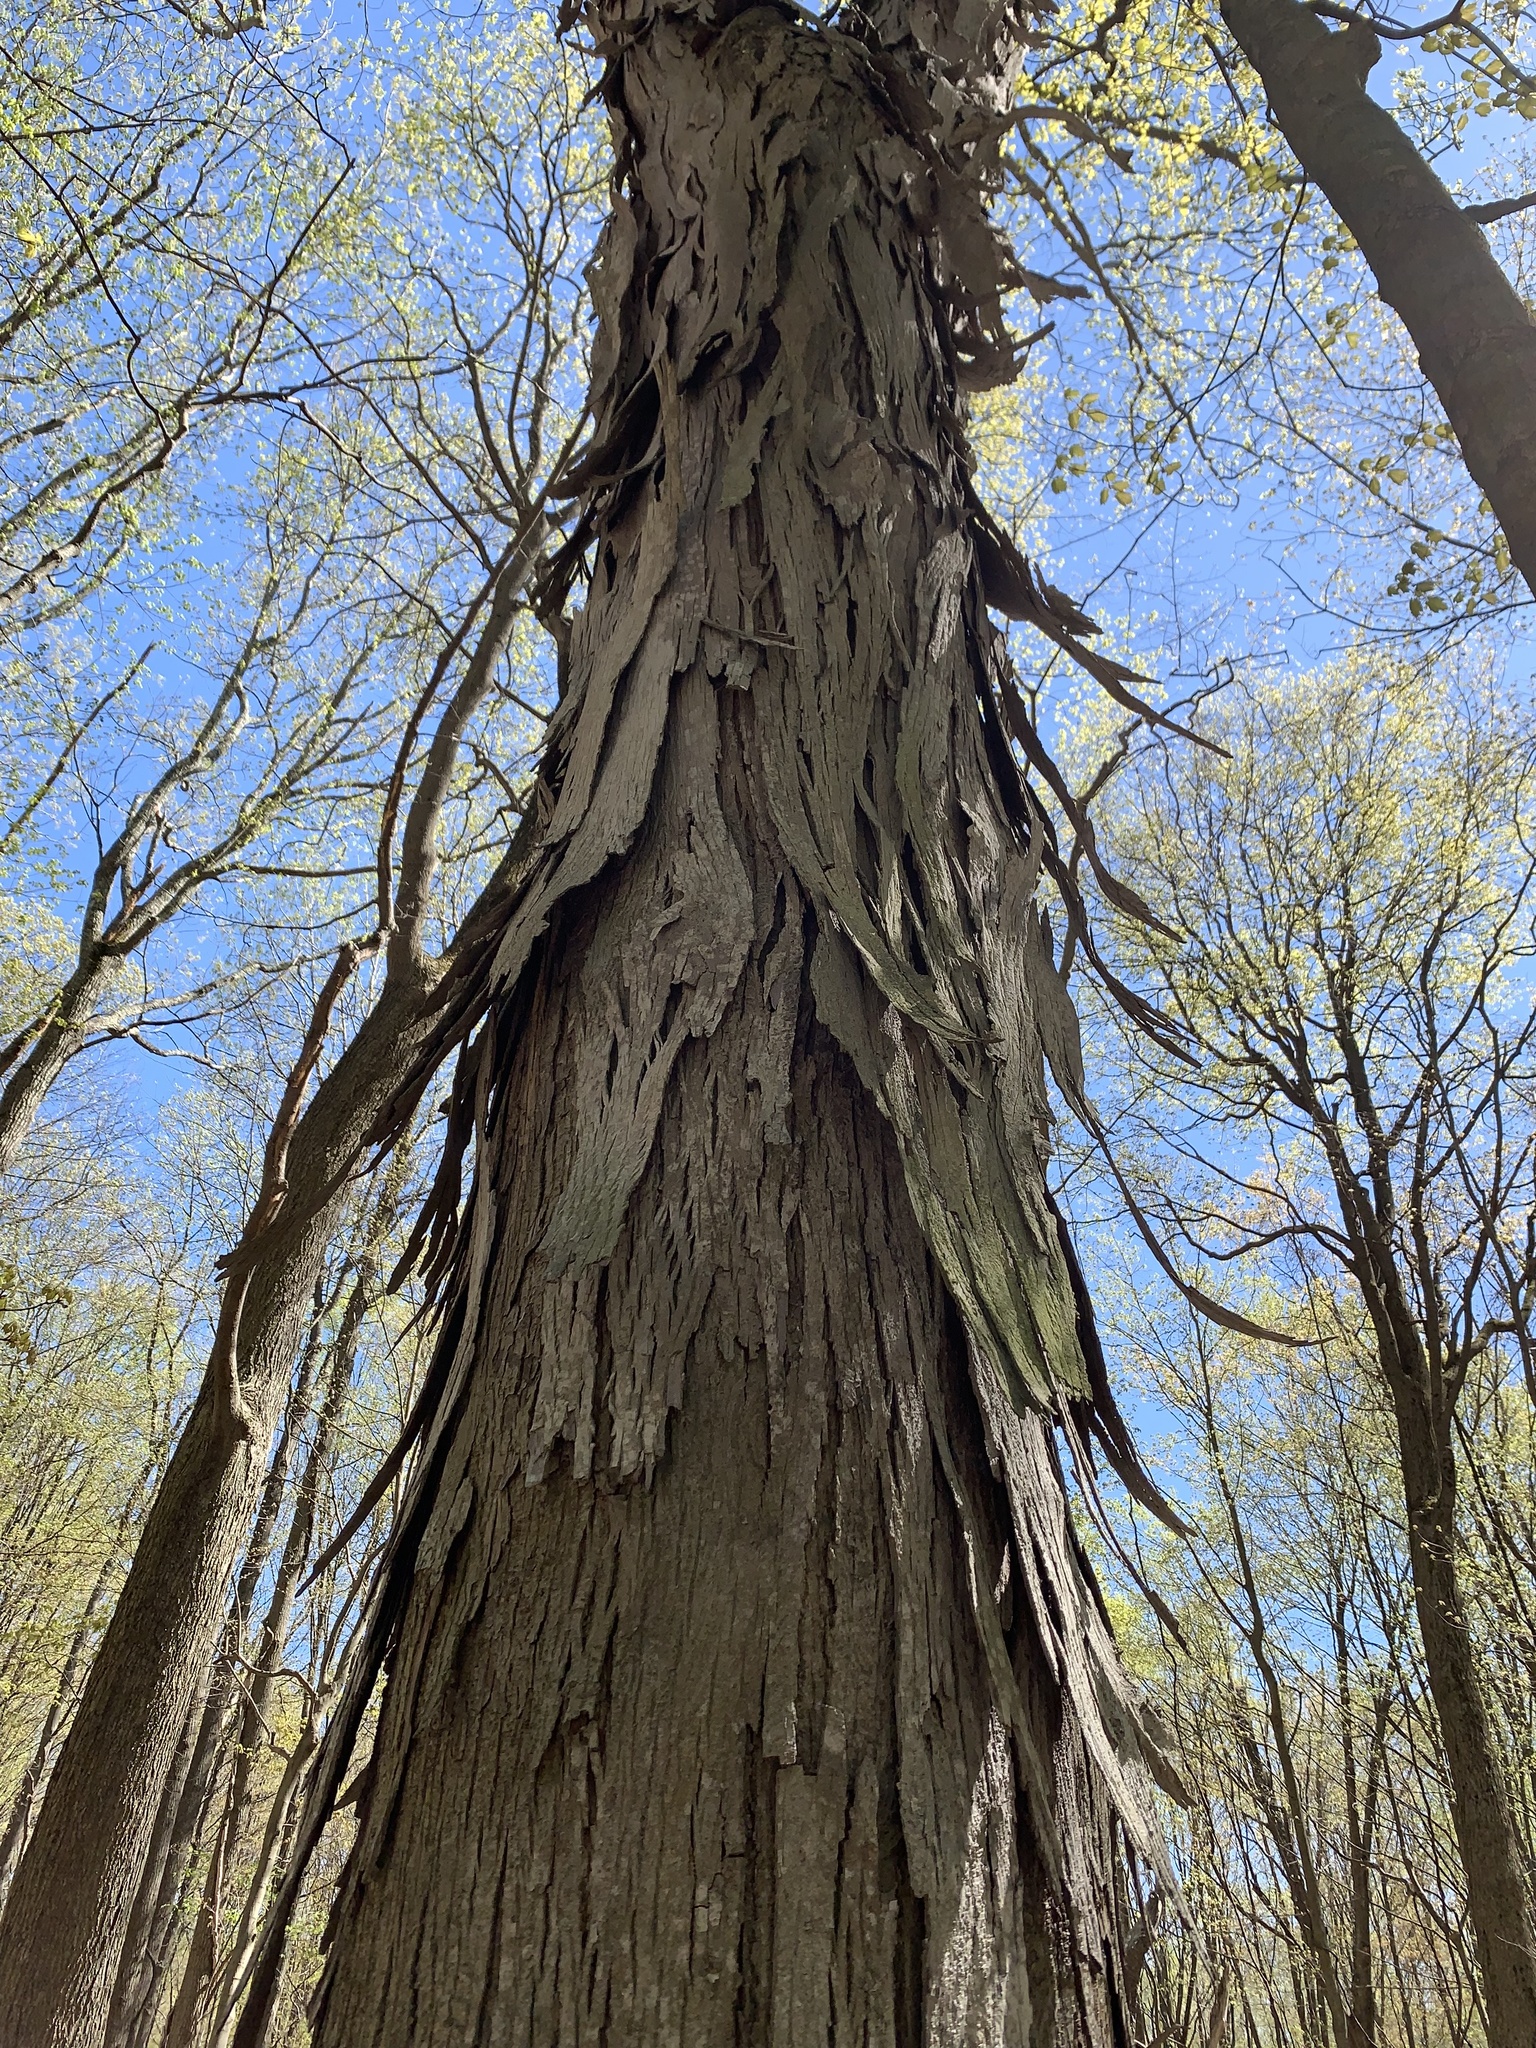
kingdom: Plantae
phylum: Tracheophyta
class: Magnoliopsida
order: Fagales
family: Juglandaceae
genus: Carya
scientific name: Carya ovata
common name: Shagbark hickory
